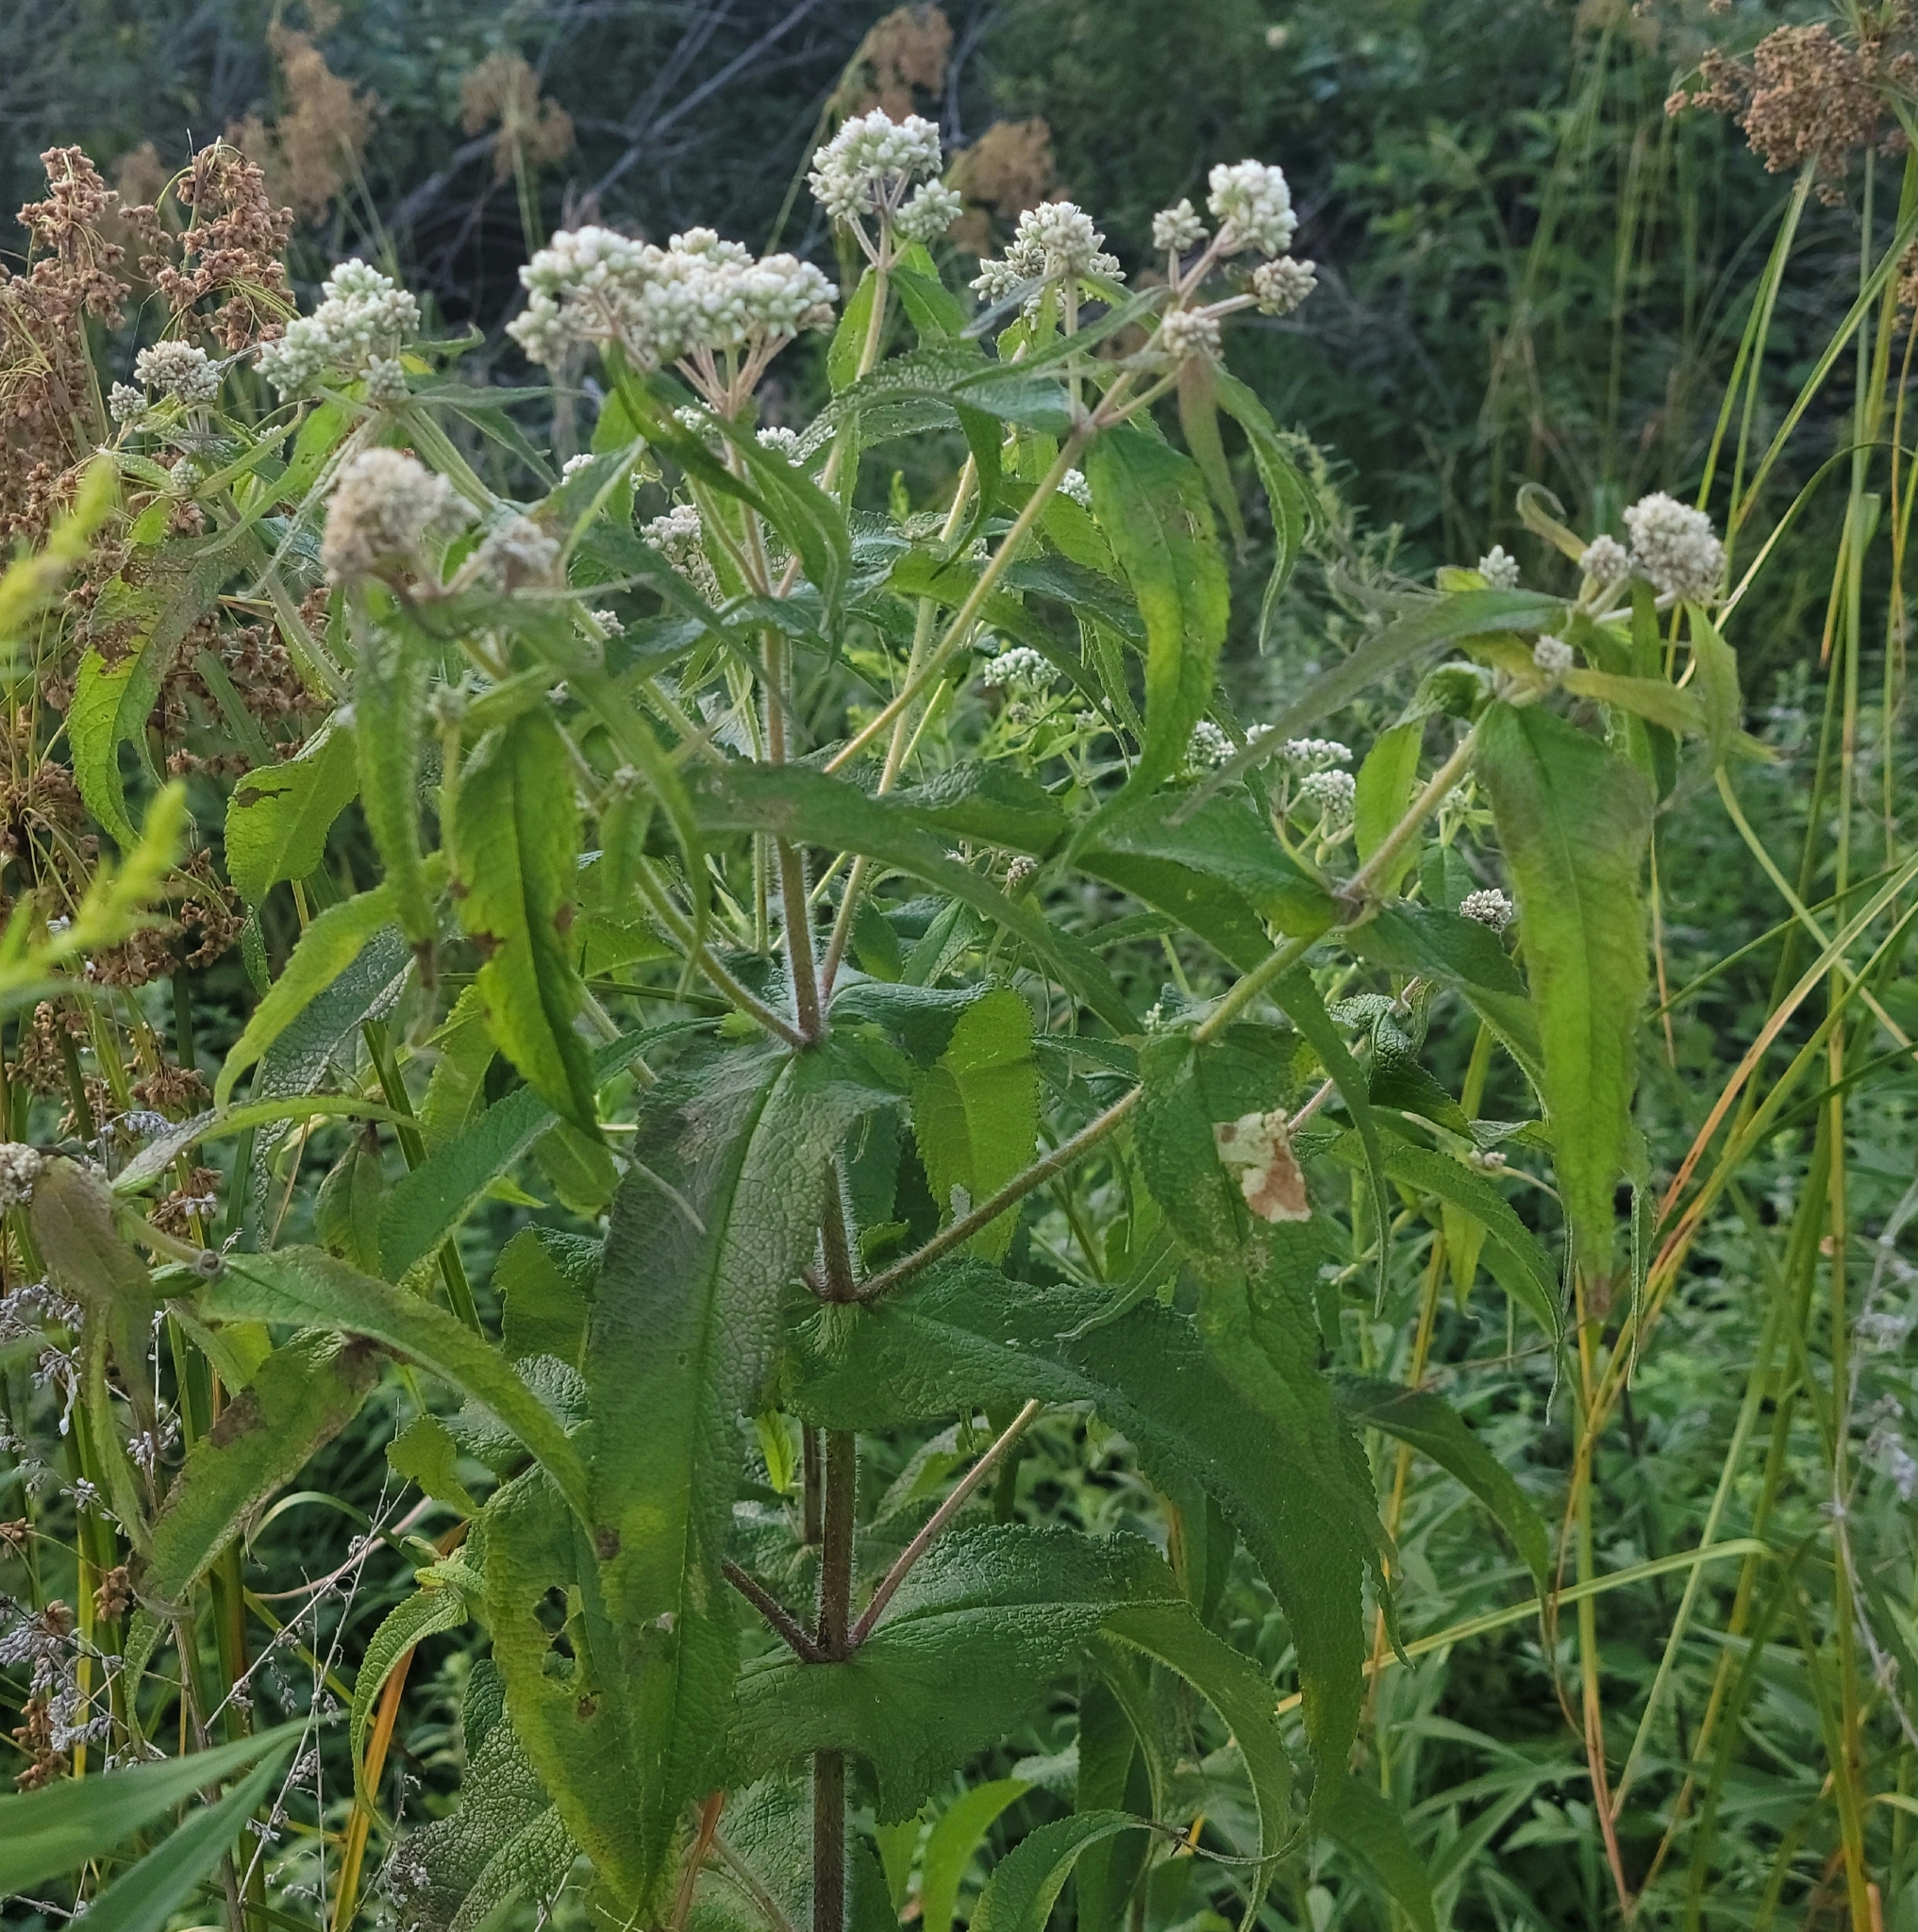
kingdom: Plantae
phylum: Tracheophyta
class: Magnoliopsida
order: Asterales
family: Asteraceae
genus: Eupatorium
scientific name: Eupatorium perfoliatum
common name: Boneset
